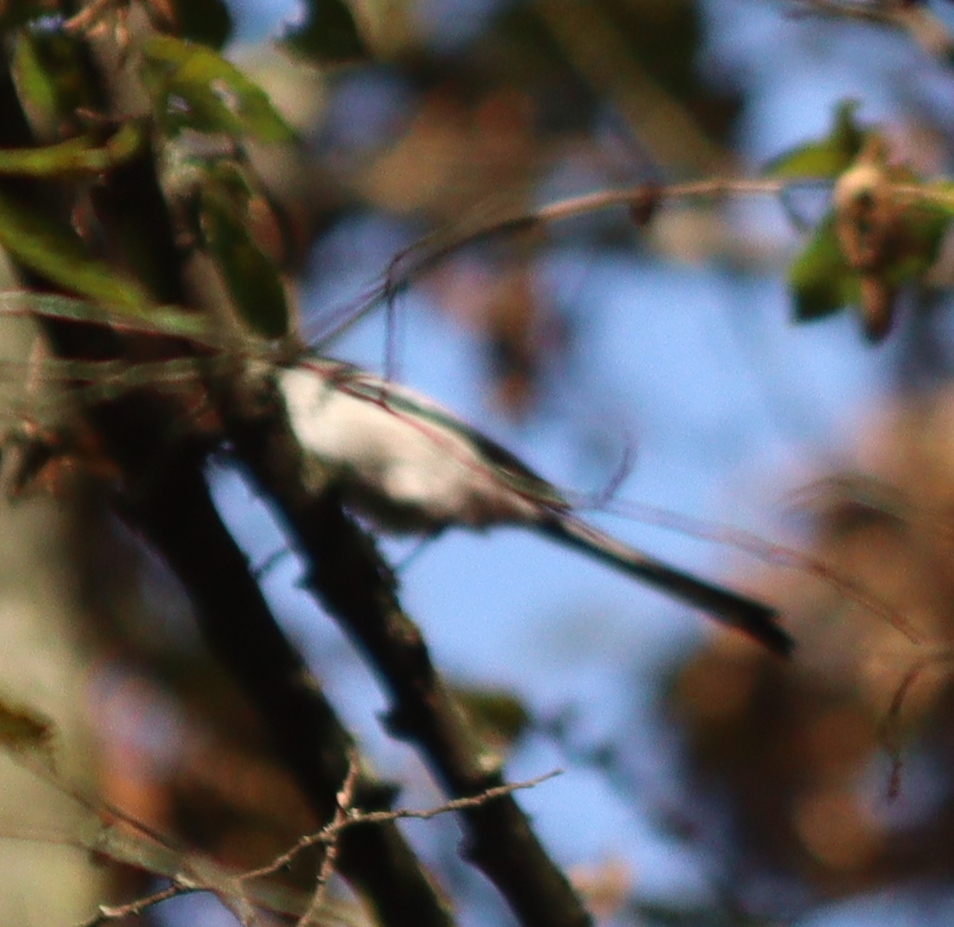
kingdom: Animalia
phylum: Chordata
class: Aves
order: Passeriformes
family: Aegithalidae
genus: Aegithalos
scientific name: Aegithalos caudatus
